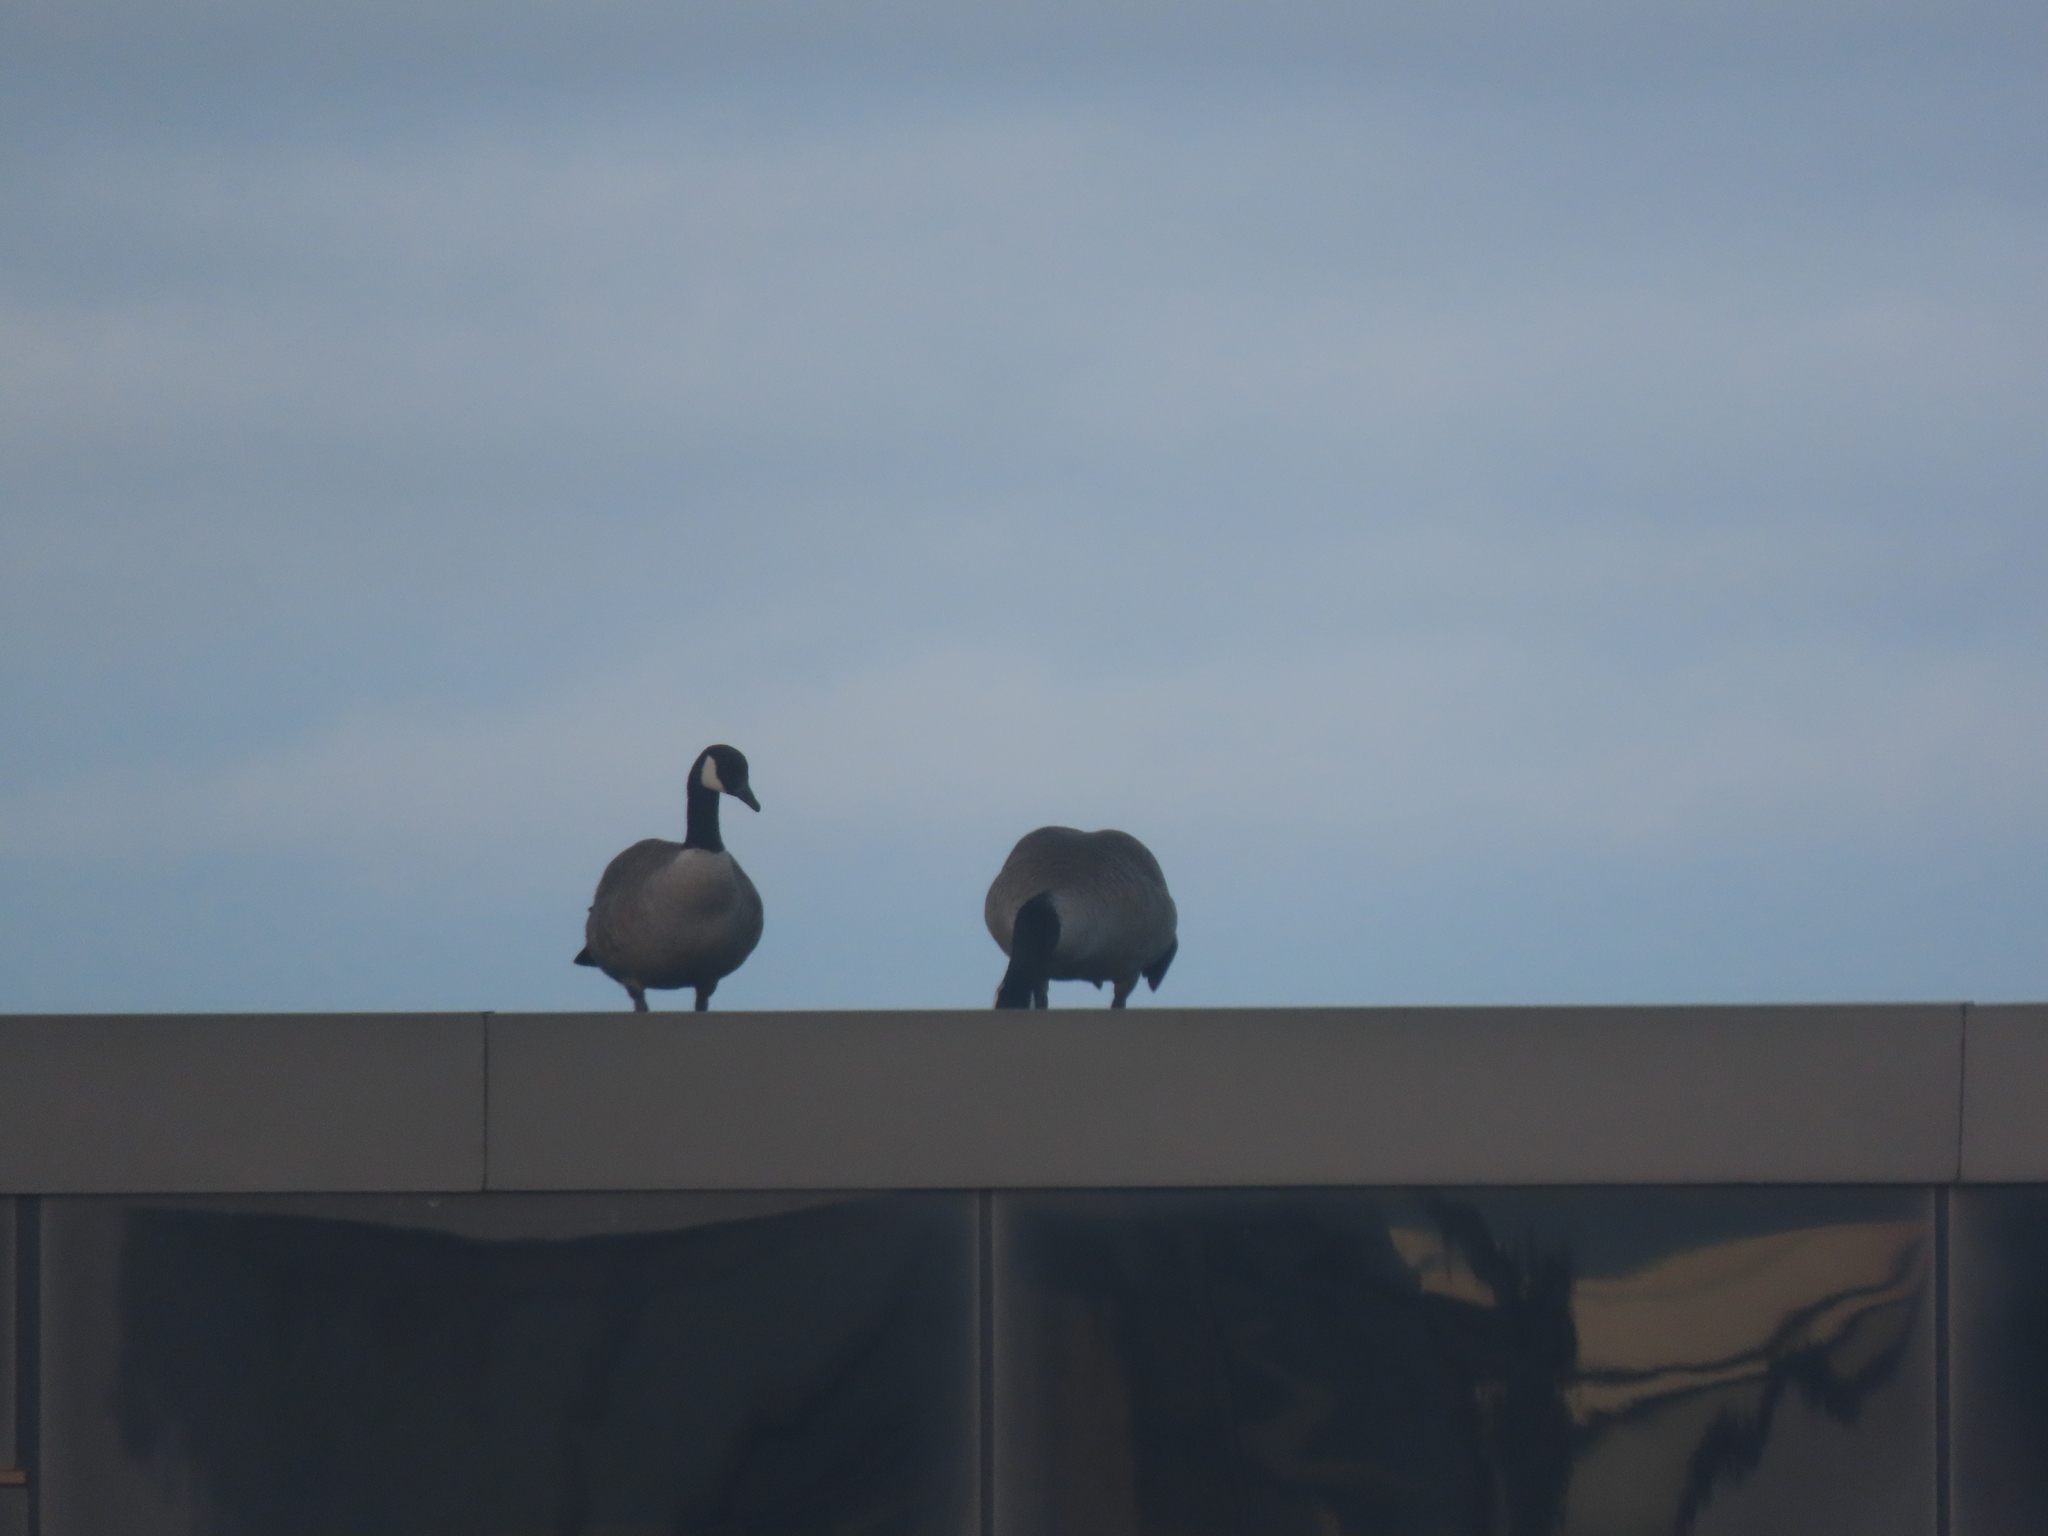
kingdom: Animalia
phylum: Chordata
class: Aves
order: Anseriformes
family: Anatidae
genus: Branta
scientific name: Branta canadensis
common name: Canada goose
